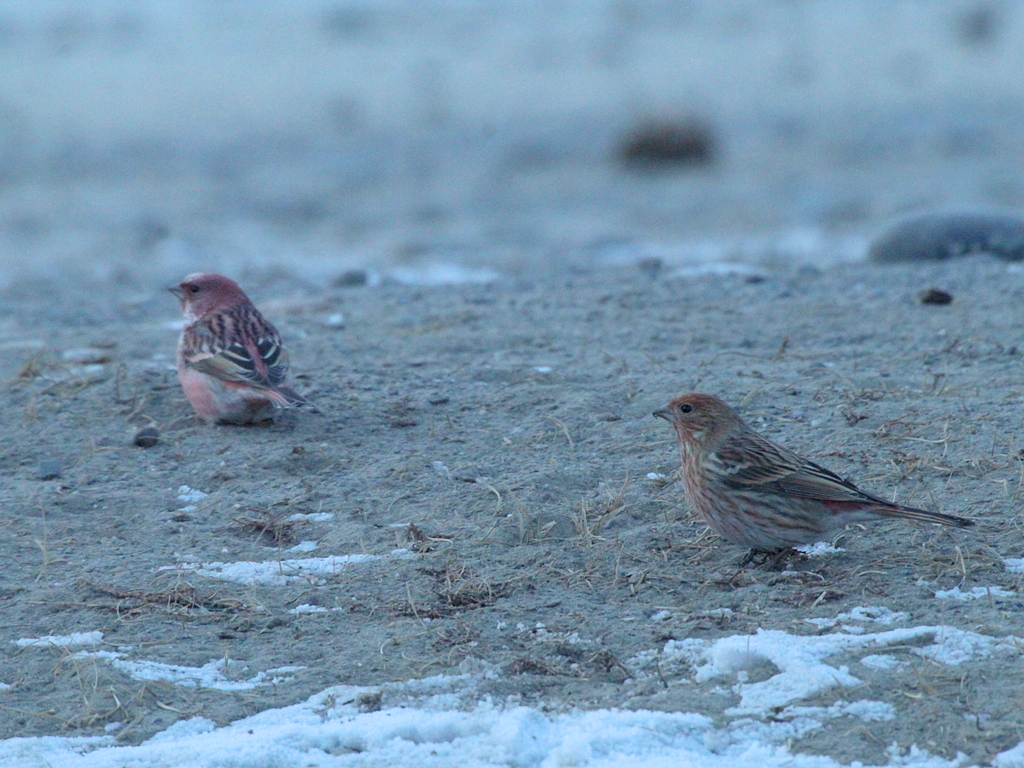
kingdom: Animalia
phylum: Chordata
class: Aves
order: Passeriformes
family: Fringillidae
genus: Carpodacus
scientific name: Carpodacus roseus
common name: Pallas's rosefinch
